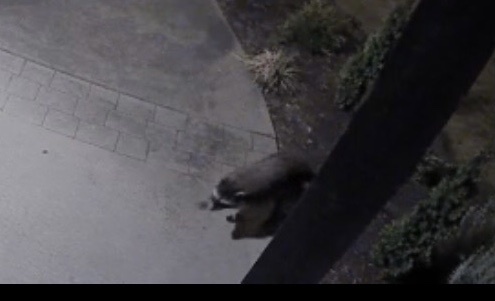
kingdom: Animalia
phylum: Chordata
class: Mammalia
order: Carnivora
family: Procyonidae
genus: Procyon
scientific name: Procyon lotor
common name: Raccoon
